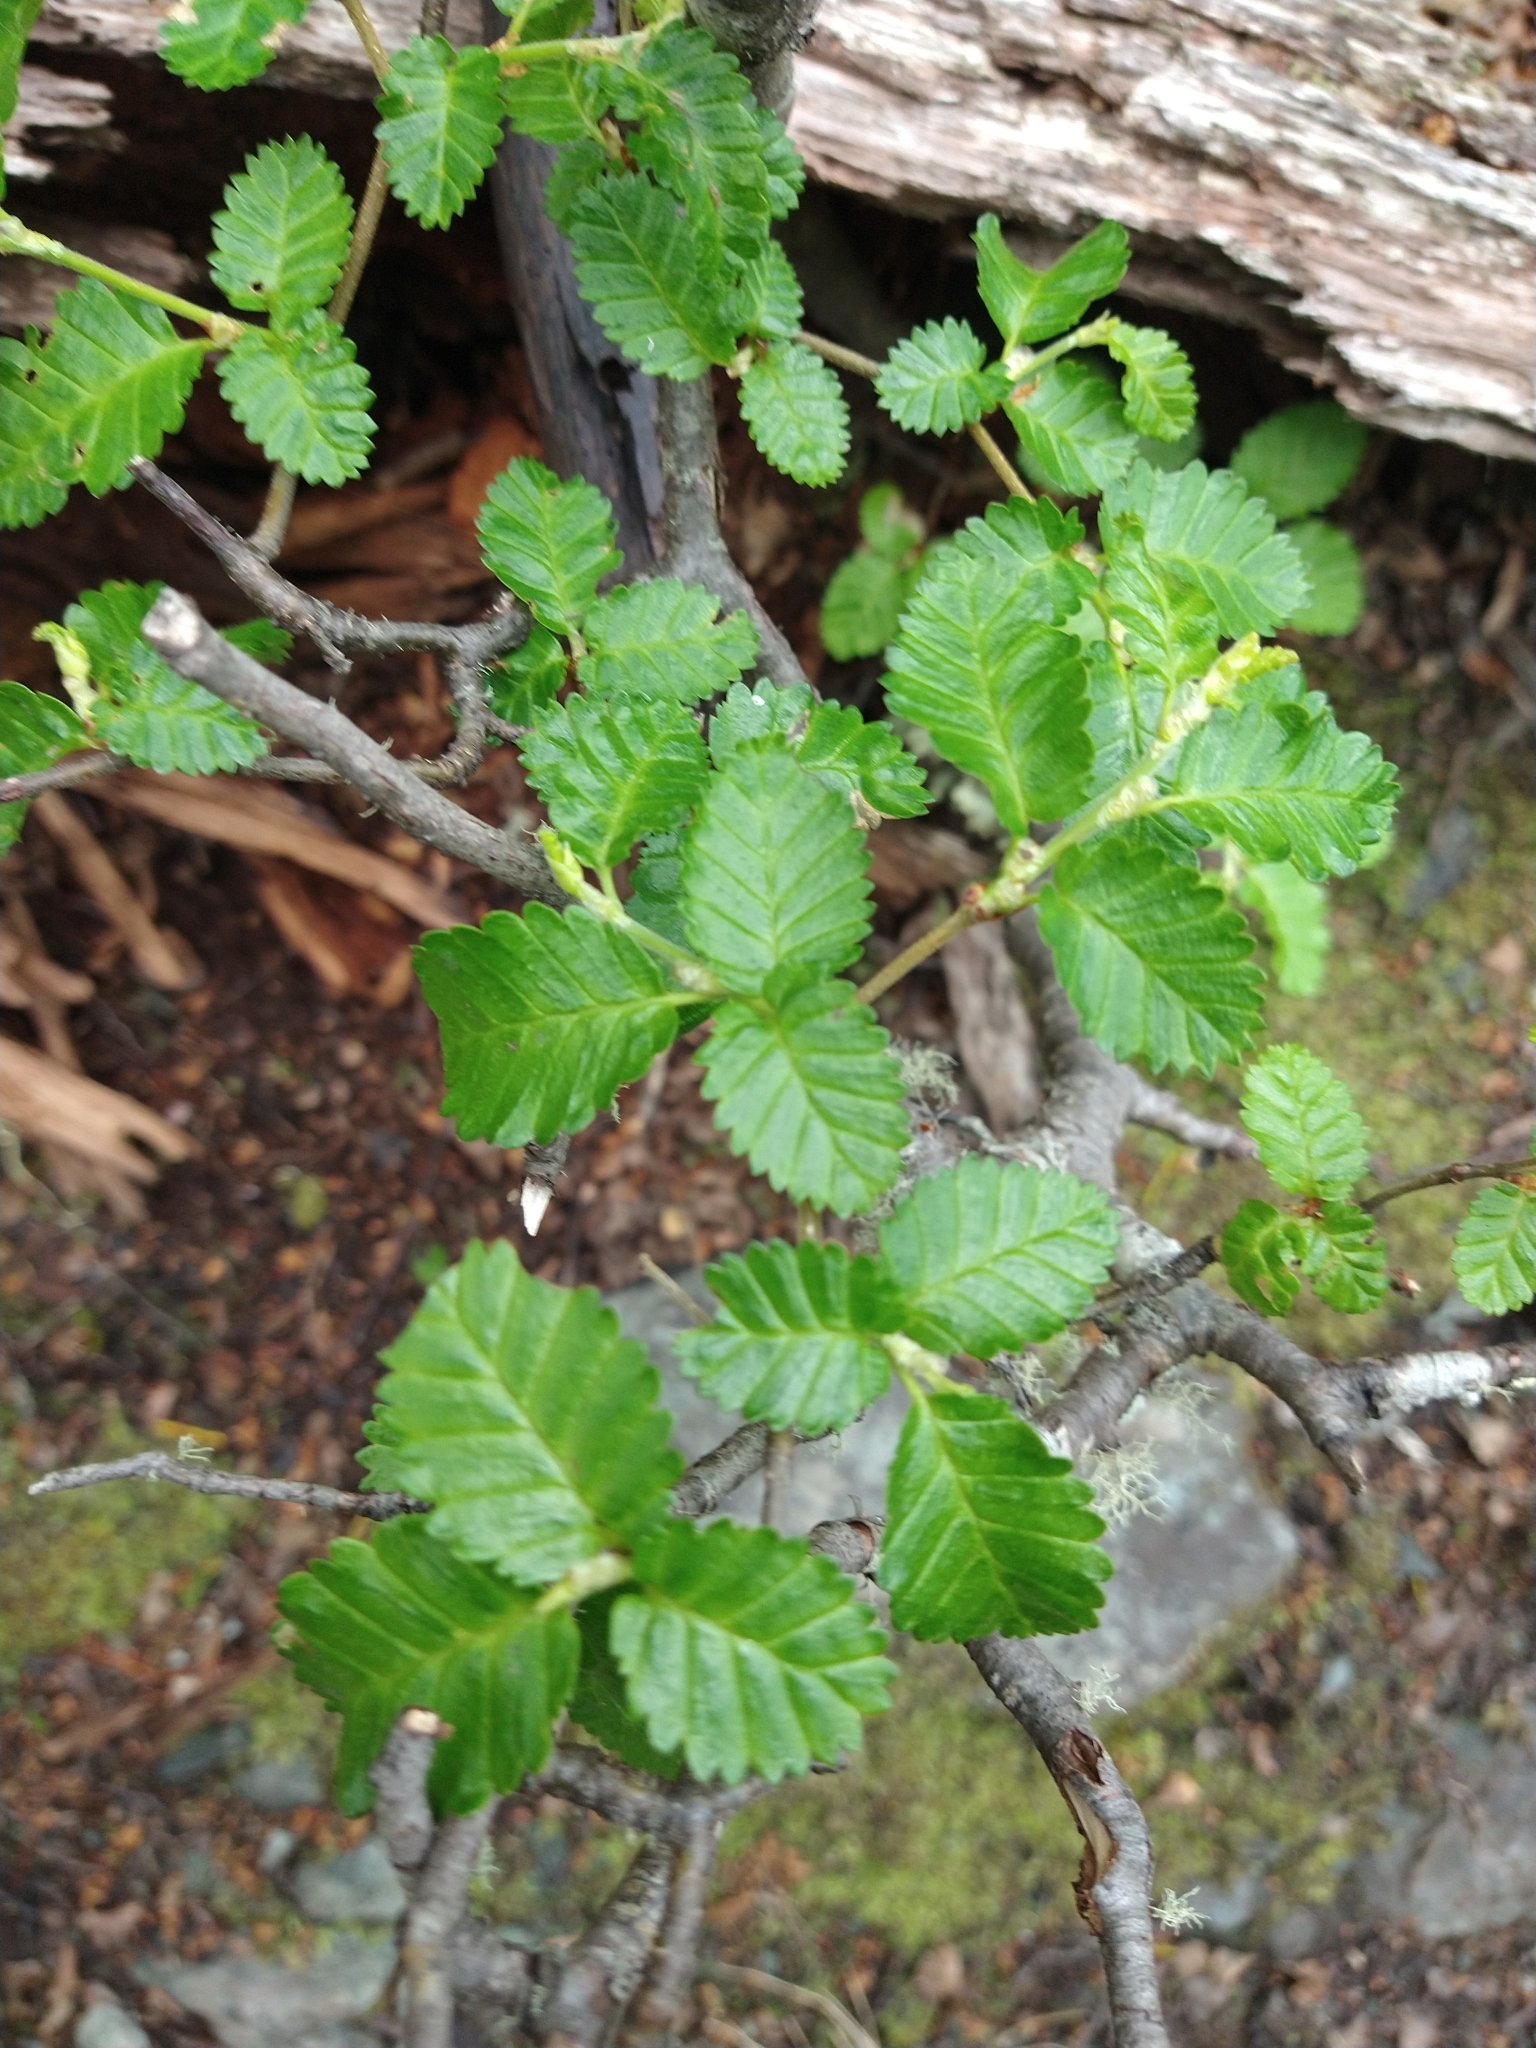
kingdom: Plantae
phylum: Tracheophyta
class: Magnoliopsida
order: Fagales
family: Nothofagaceae
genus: Nothofagus
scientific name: Nothofagus pumilio
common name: Lenga beech
